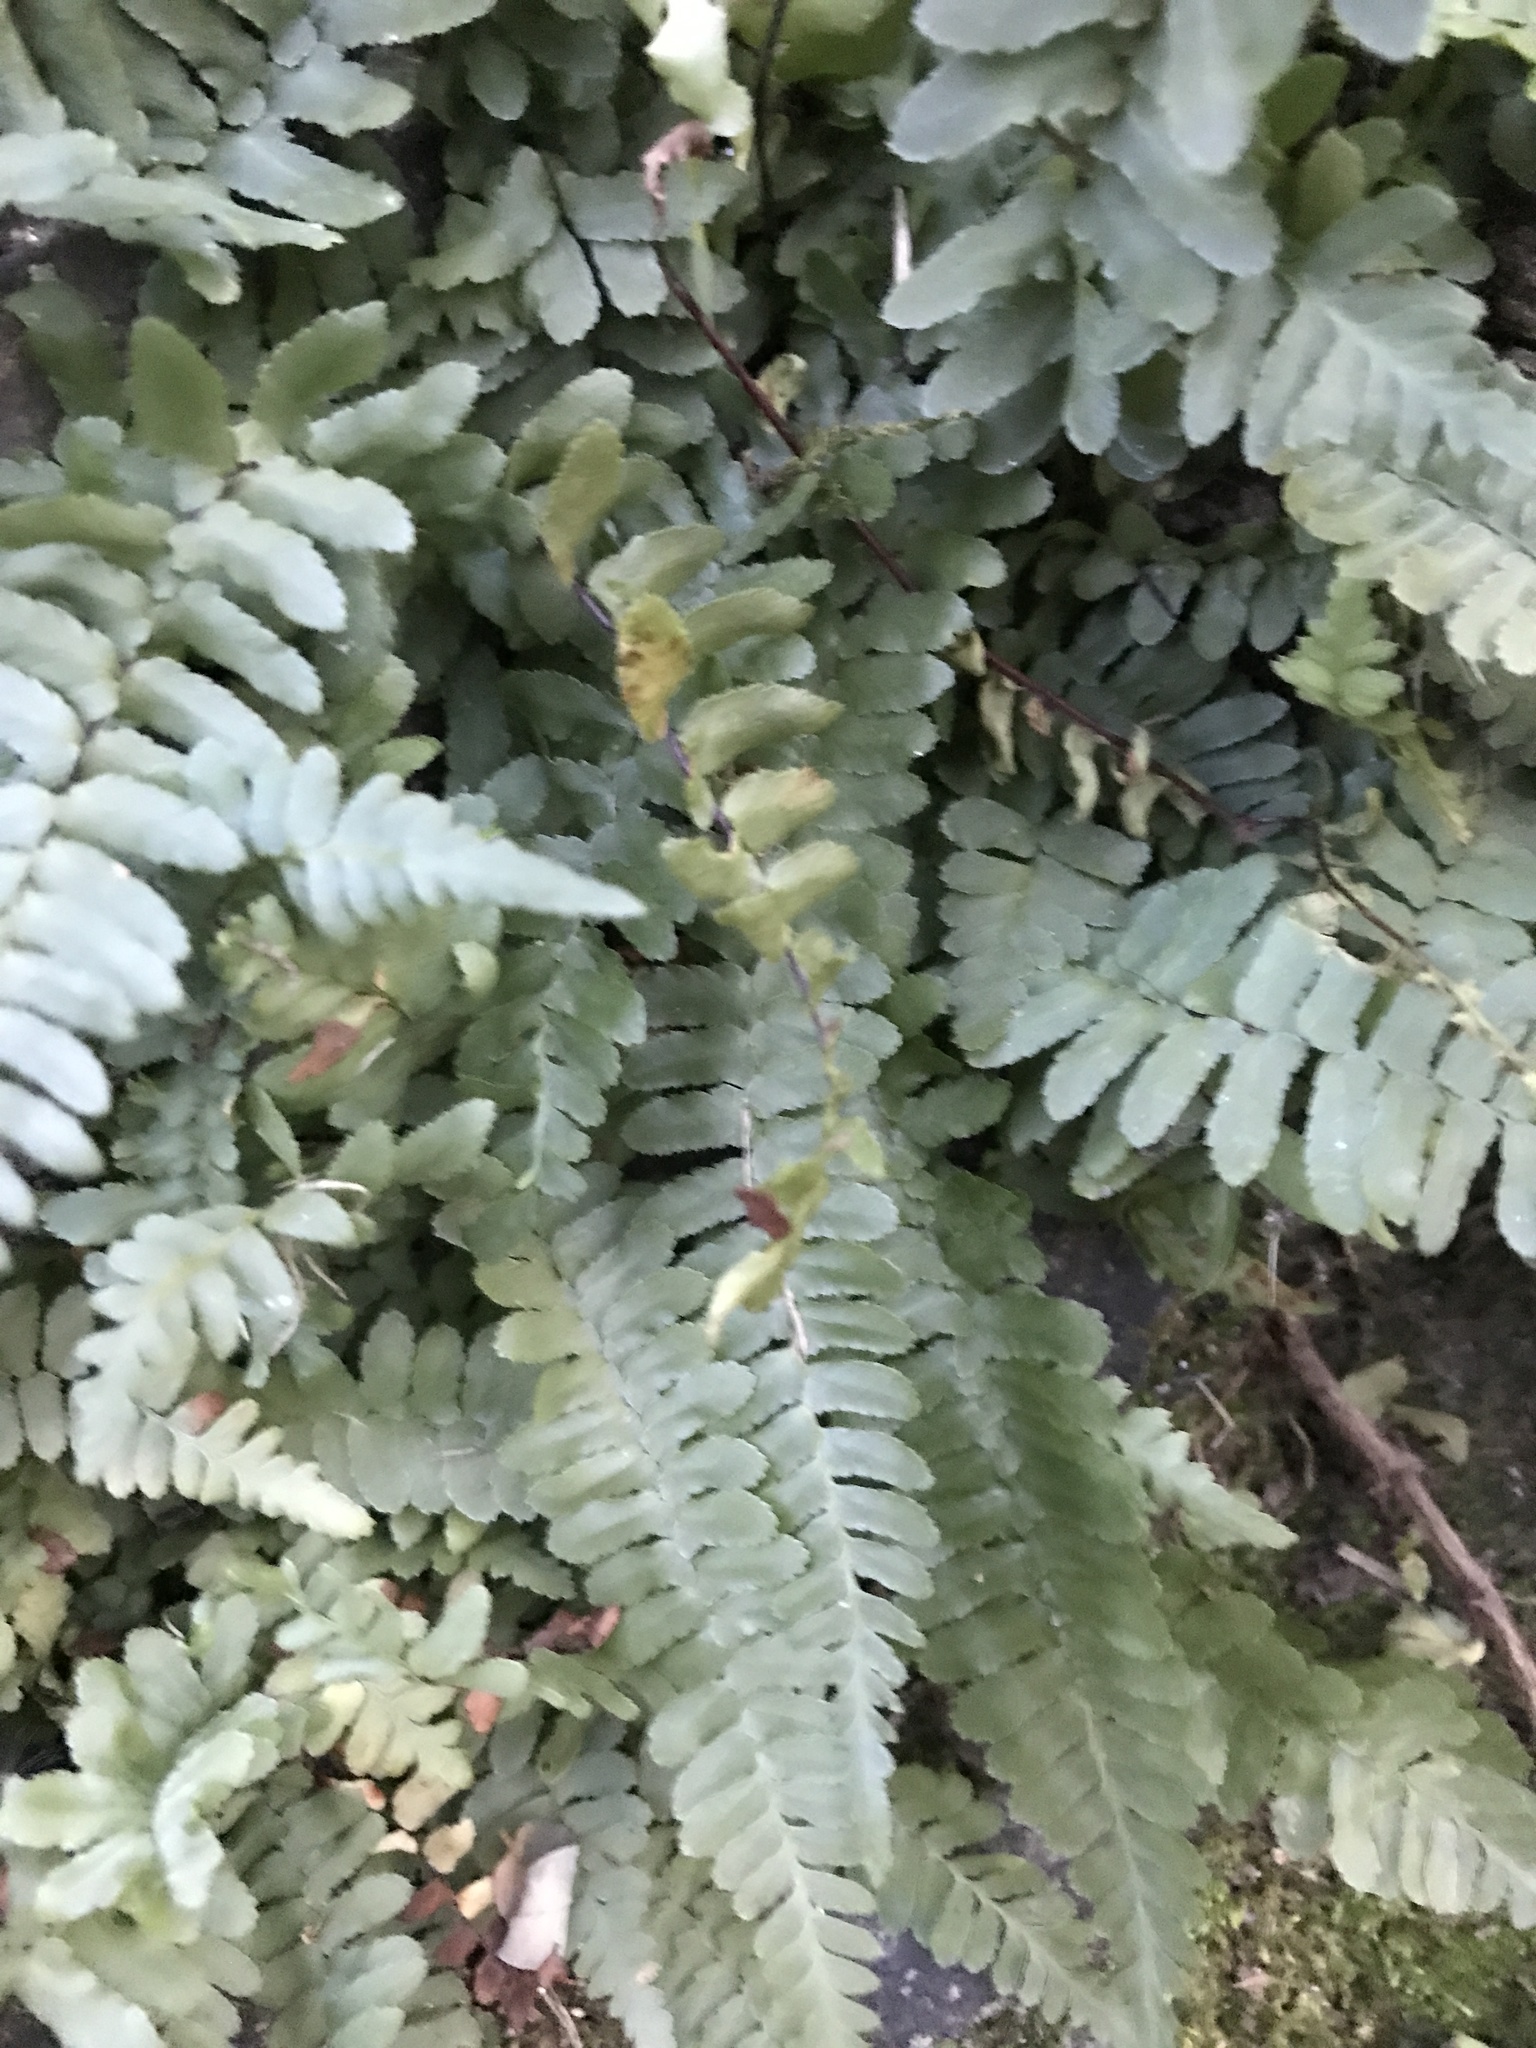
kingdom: Plantae
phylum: Tracheophyta
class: Polypodiopsida
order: Polypodiales
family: Aspleniaceae
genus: Asplenium
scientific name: Asplenium platyneuron
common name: Ebony spleenwort
